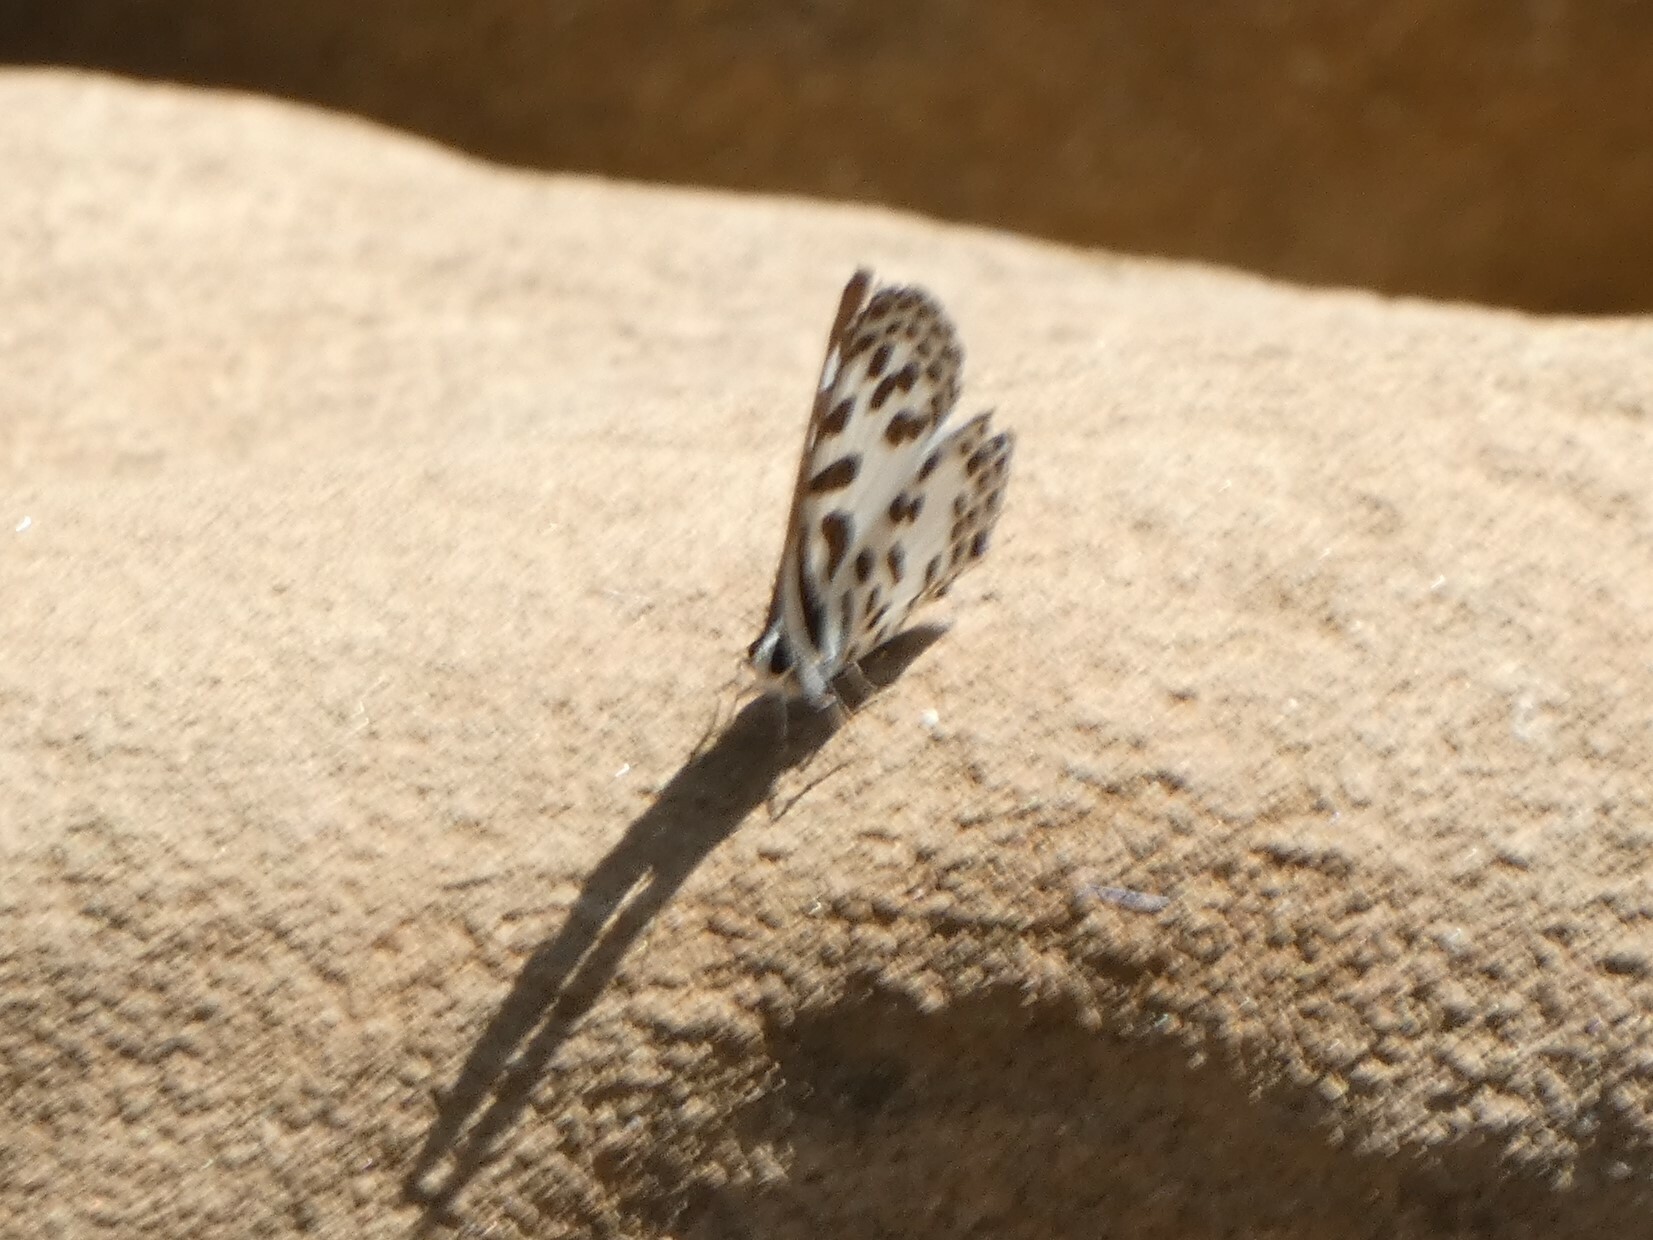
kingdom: Animalia
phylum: Arthropoda
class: Insecta
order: Lepidoptera
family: Lycaenidae
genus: Castalius
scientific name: Castalius rosimon
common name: Common pierrot
